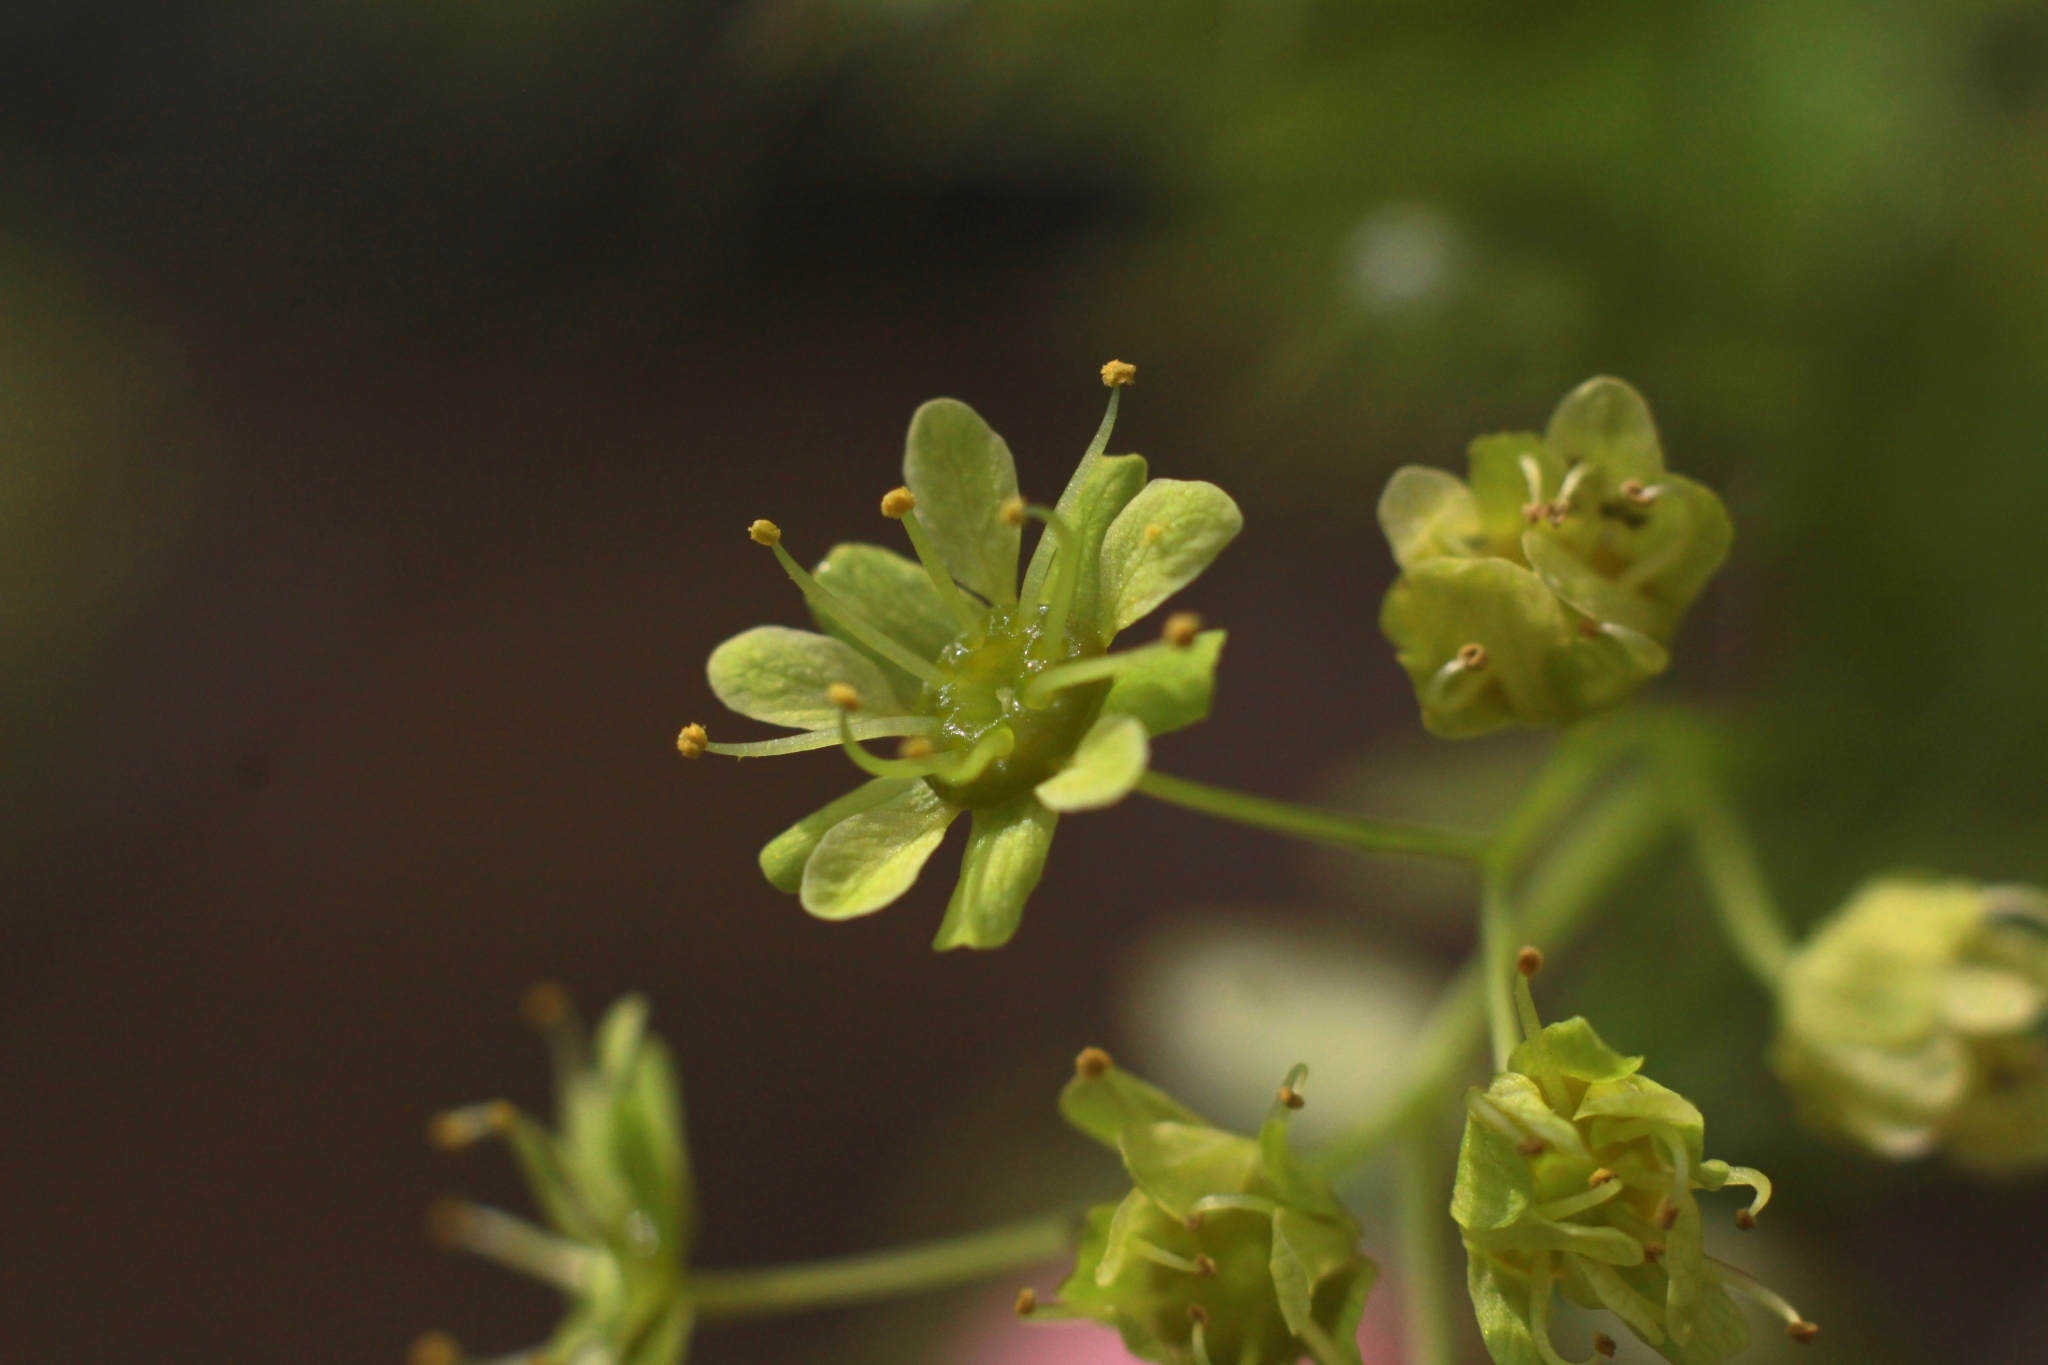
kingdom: Plantae
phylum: Tracheophyta
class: Magnoliopsida
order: Sapindales
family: Sapindaceae
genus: Acer
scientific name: Acer platanoides
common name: Norway maple
